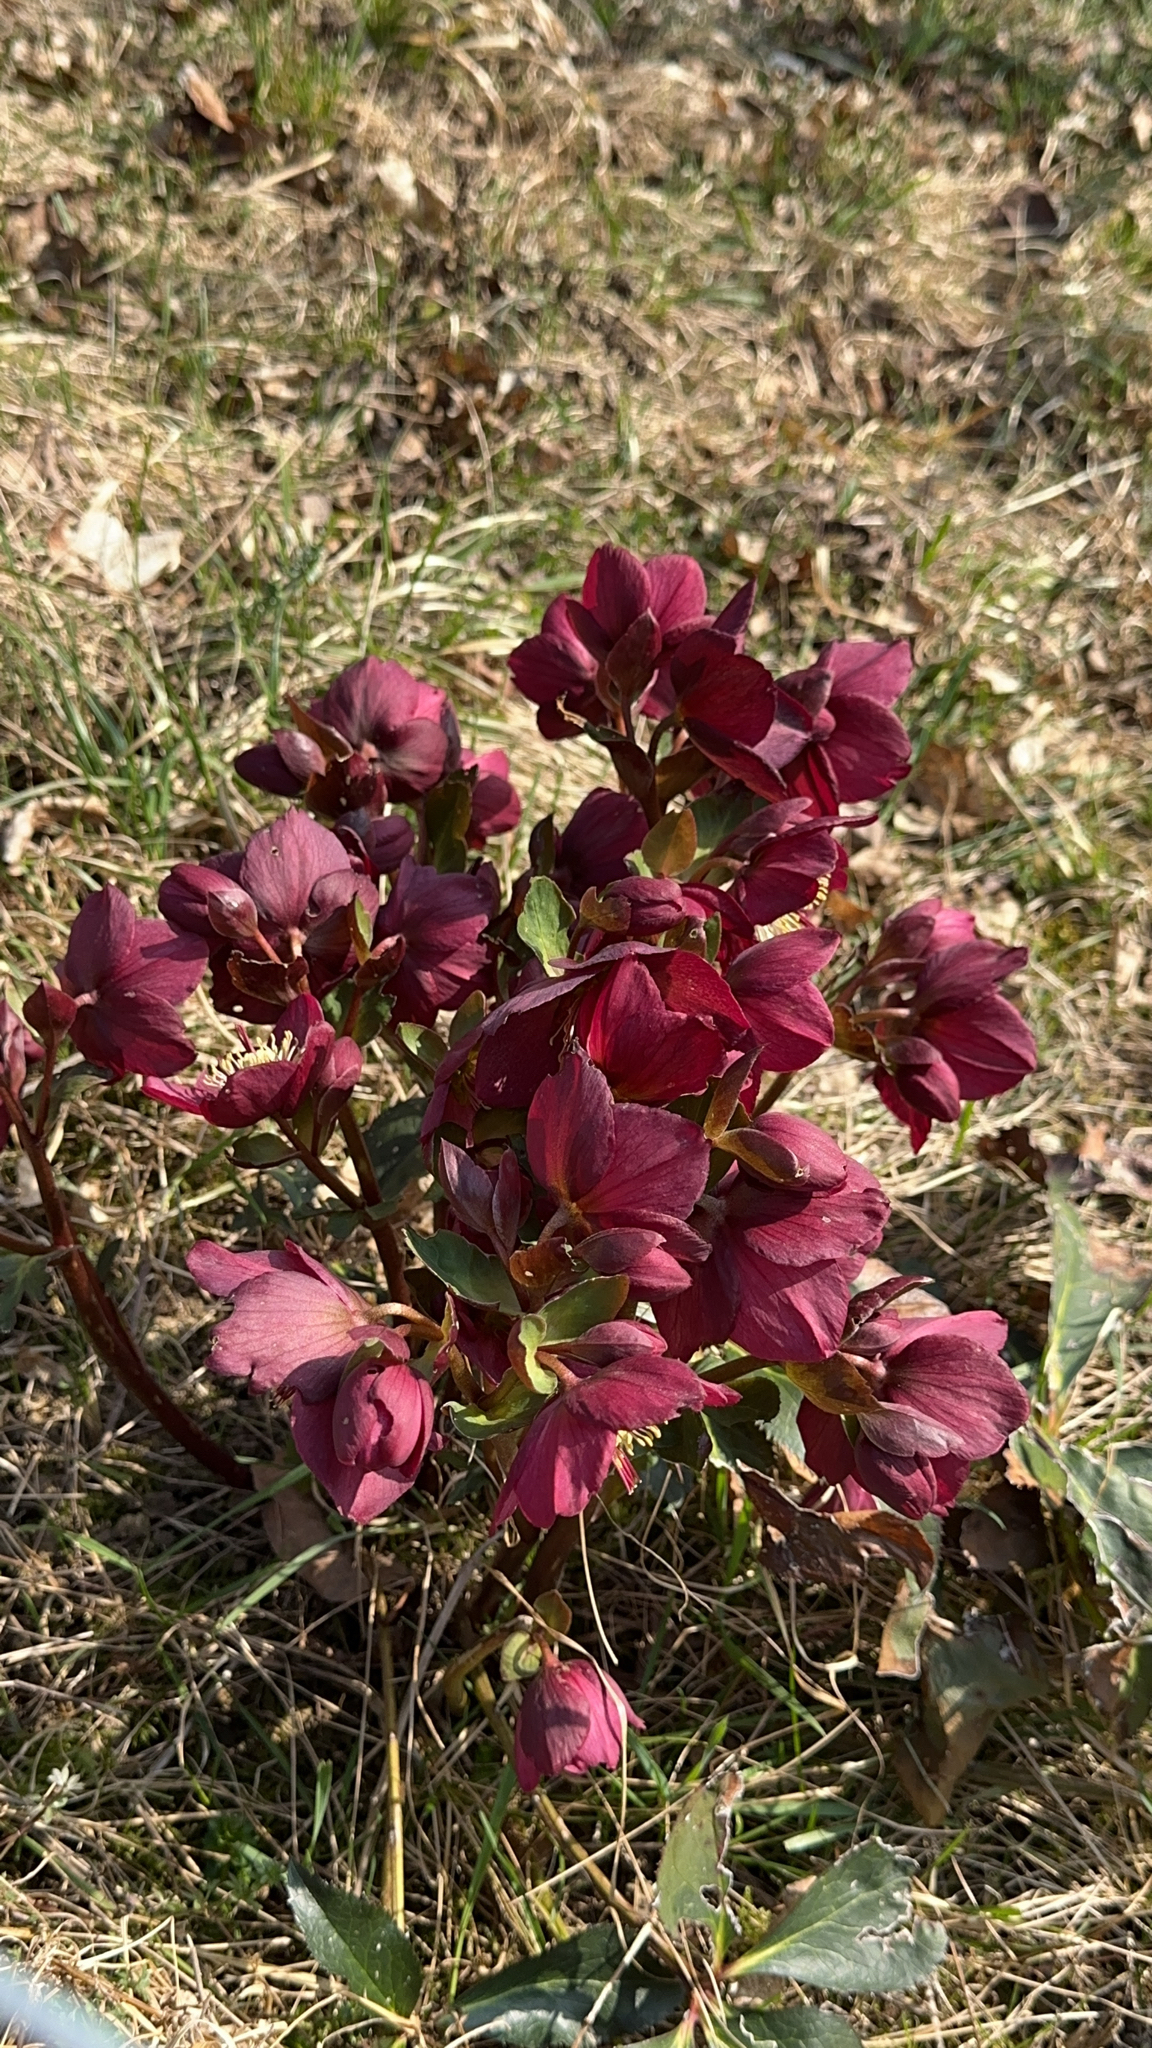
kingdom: Plantae
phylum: Tracheophyta
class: Magnoliopsida
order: Ranunculales
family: Ranunculaceae
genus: Helleborus
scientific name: Helleborus orientalis
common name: Lenten-rose
